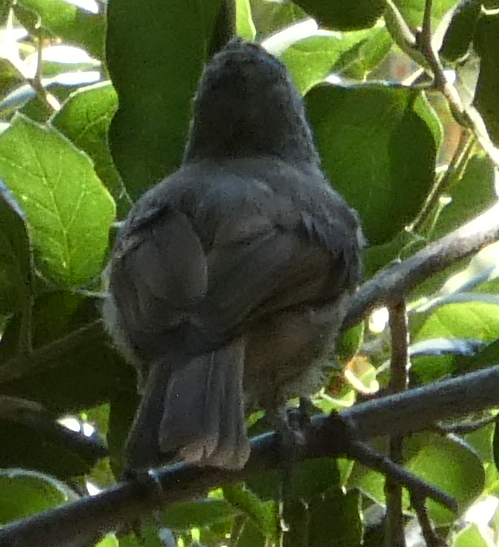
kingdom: Animalia
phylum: Chordata
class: Aves
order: Passeriformes
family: Paridae
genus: Baeolophus
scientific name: Baeolophus inornatus
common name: Oak titmouse
